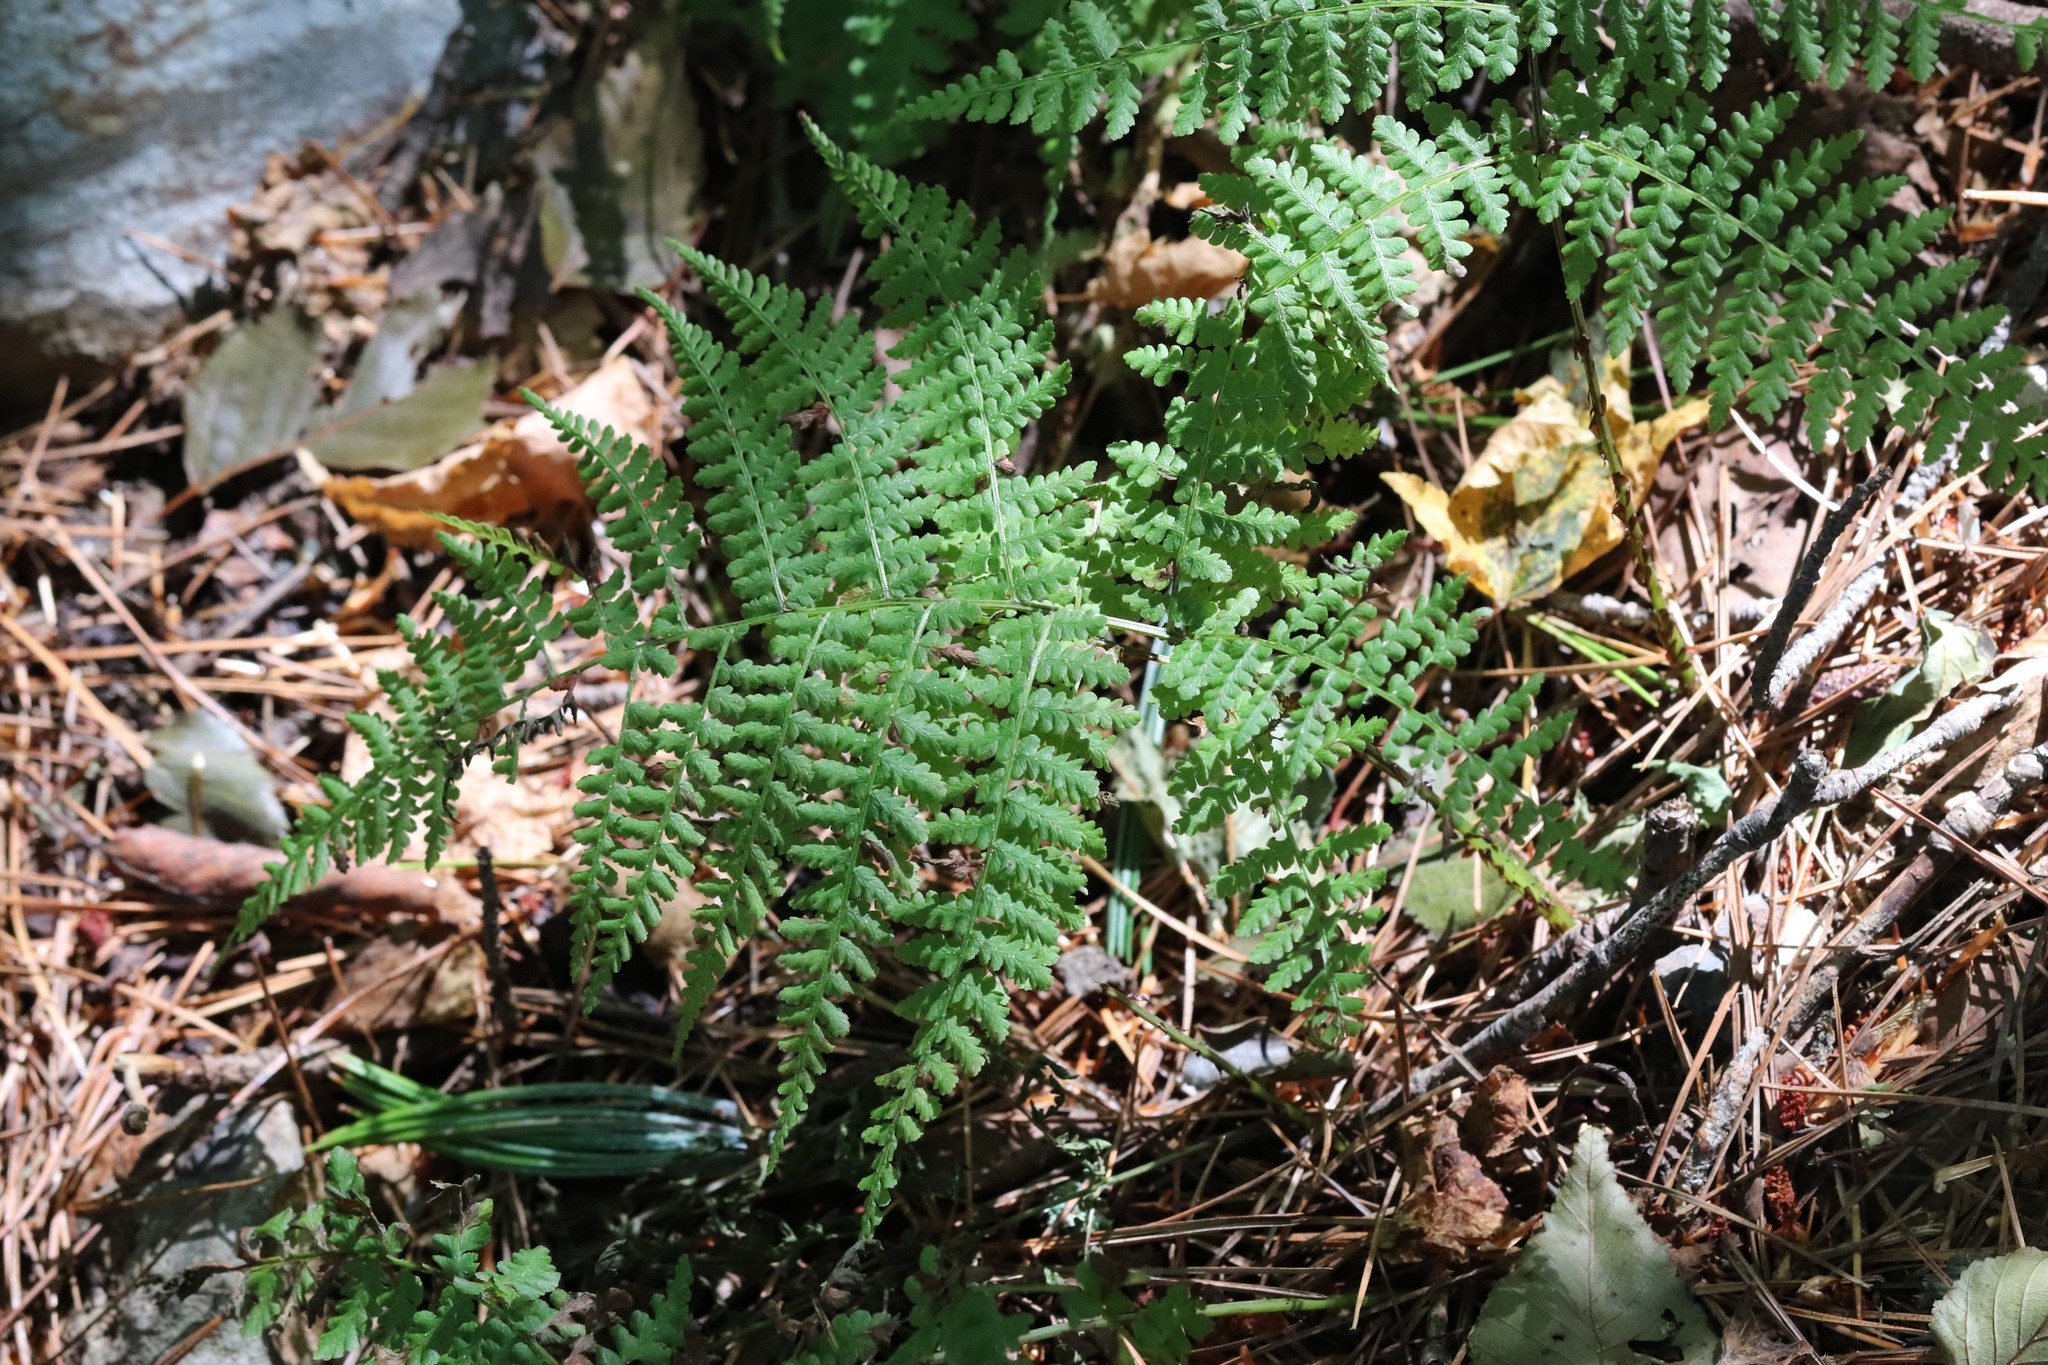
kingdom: Plantae
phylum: Tracheophyta
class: Polypodiopsida
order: Polypodiales
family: Athyriaceae
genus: Diplazium
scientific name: Diplazium sibiricum
